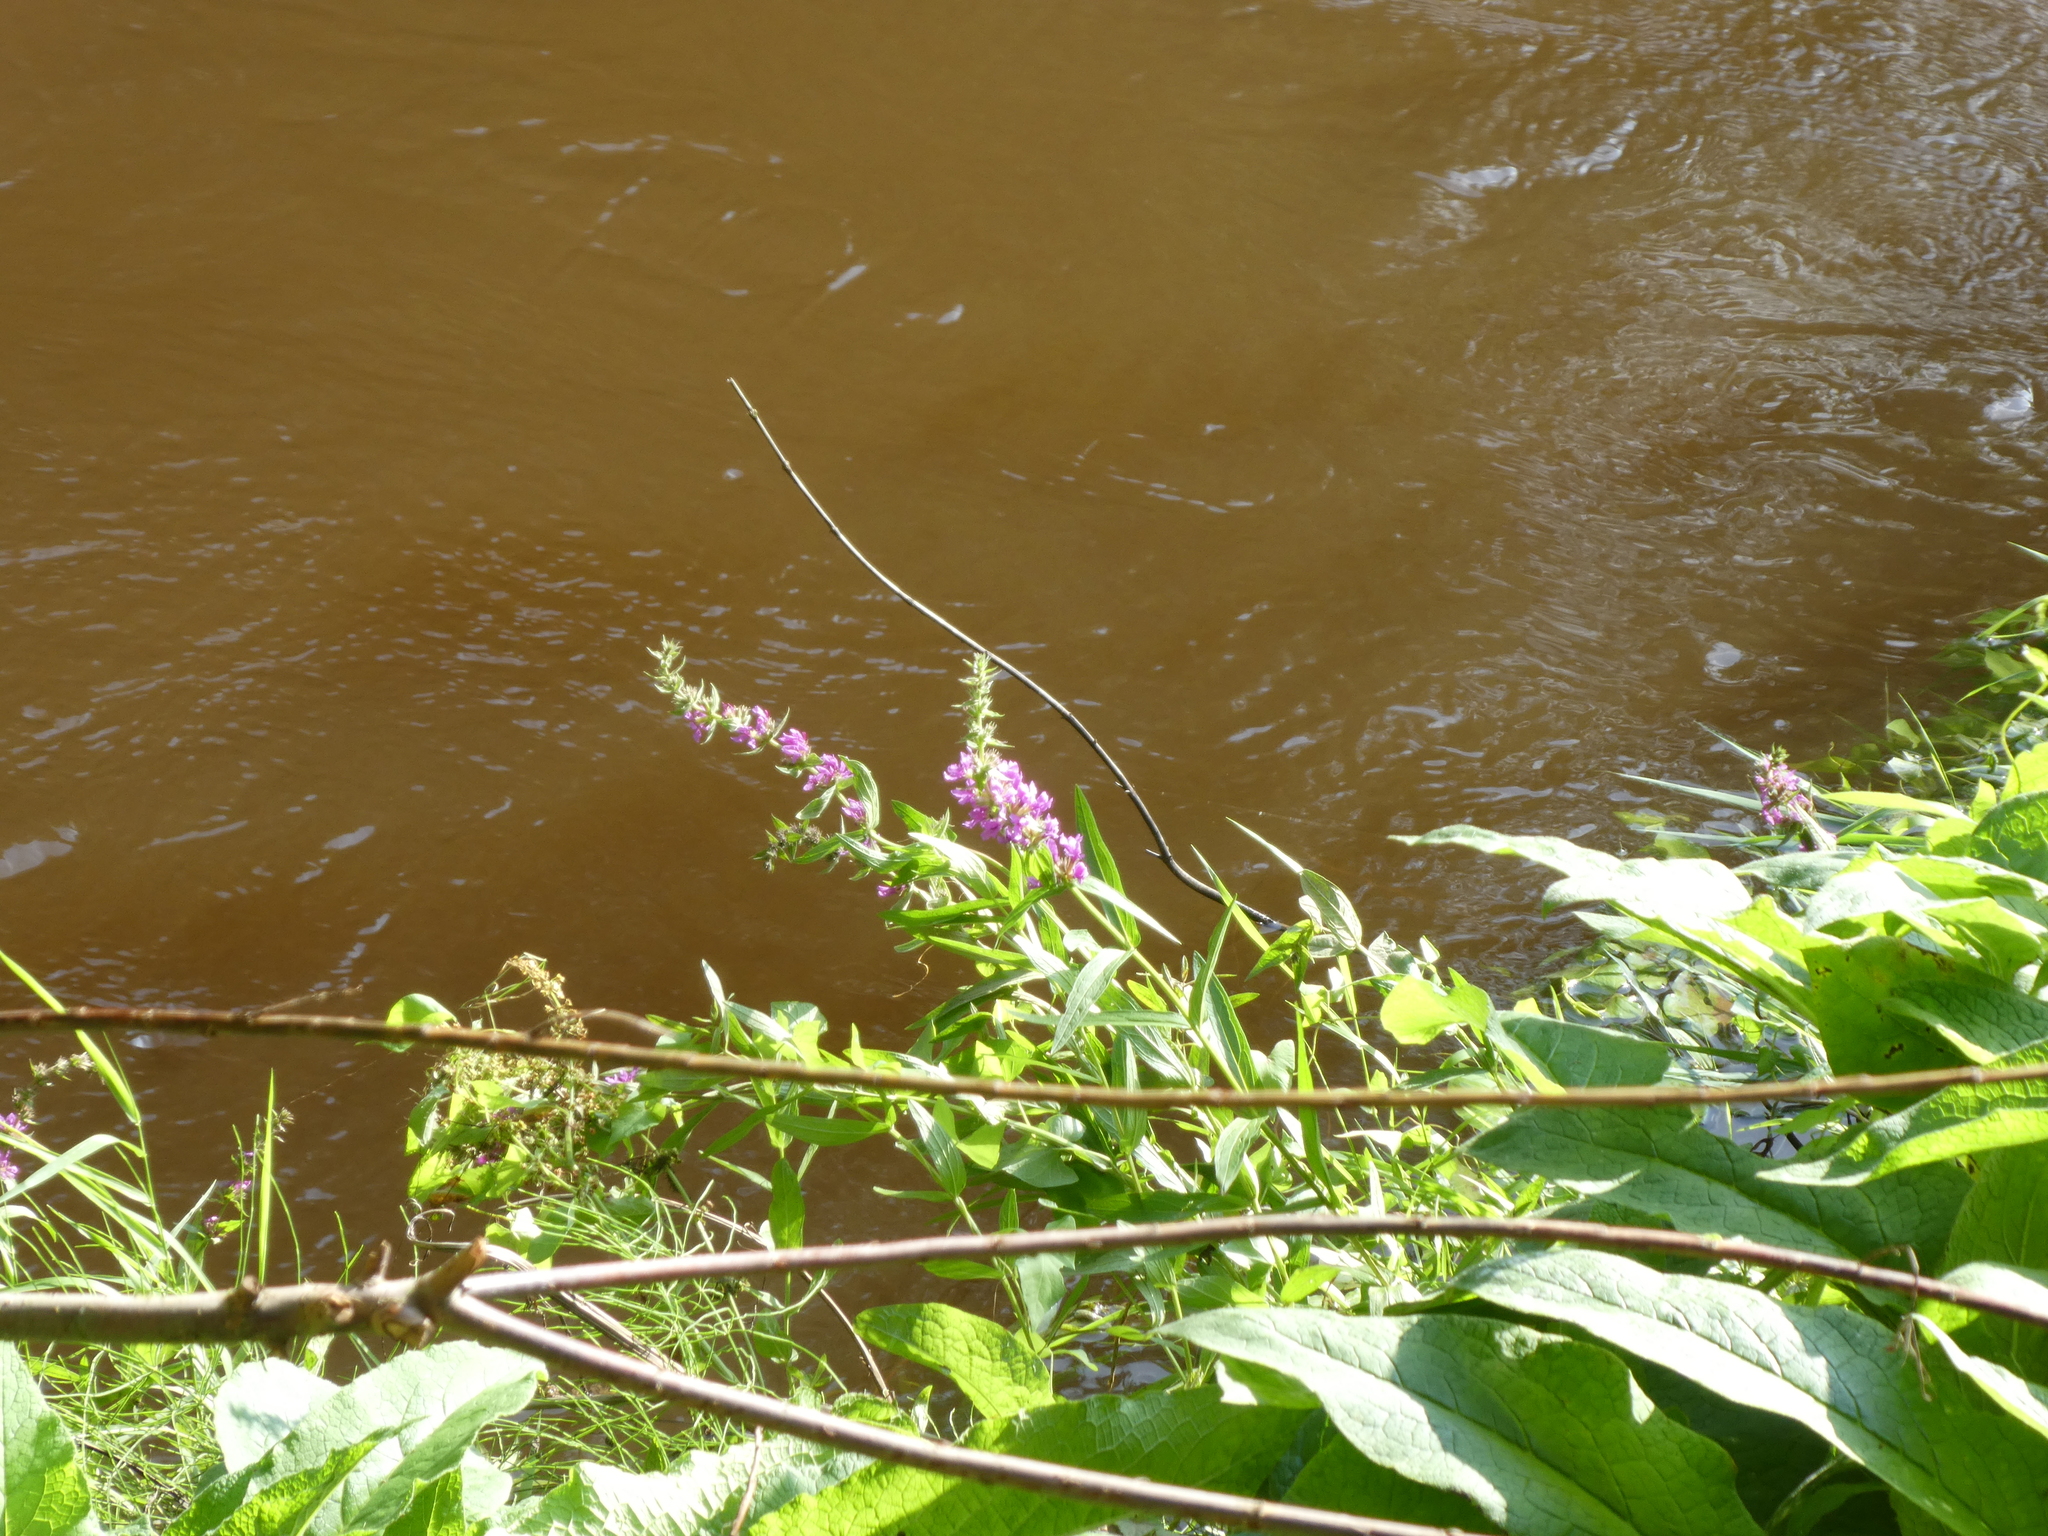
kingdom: Plantae
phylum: Tracheophyta
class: Magnoliopsida
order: Myrtales
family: Lythraceae
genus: Lythrum
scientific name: Lythrum salicaria
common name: Purple loosestrife
